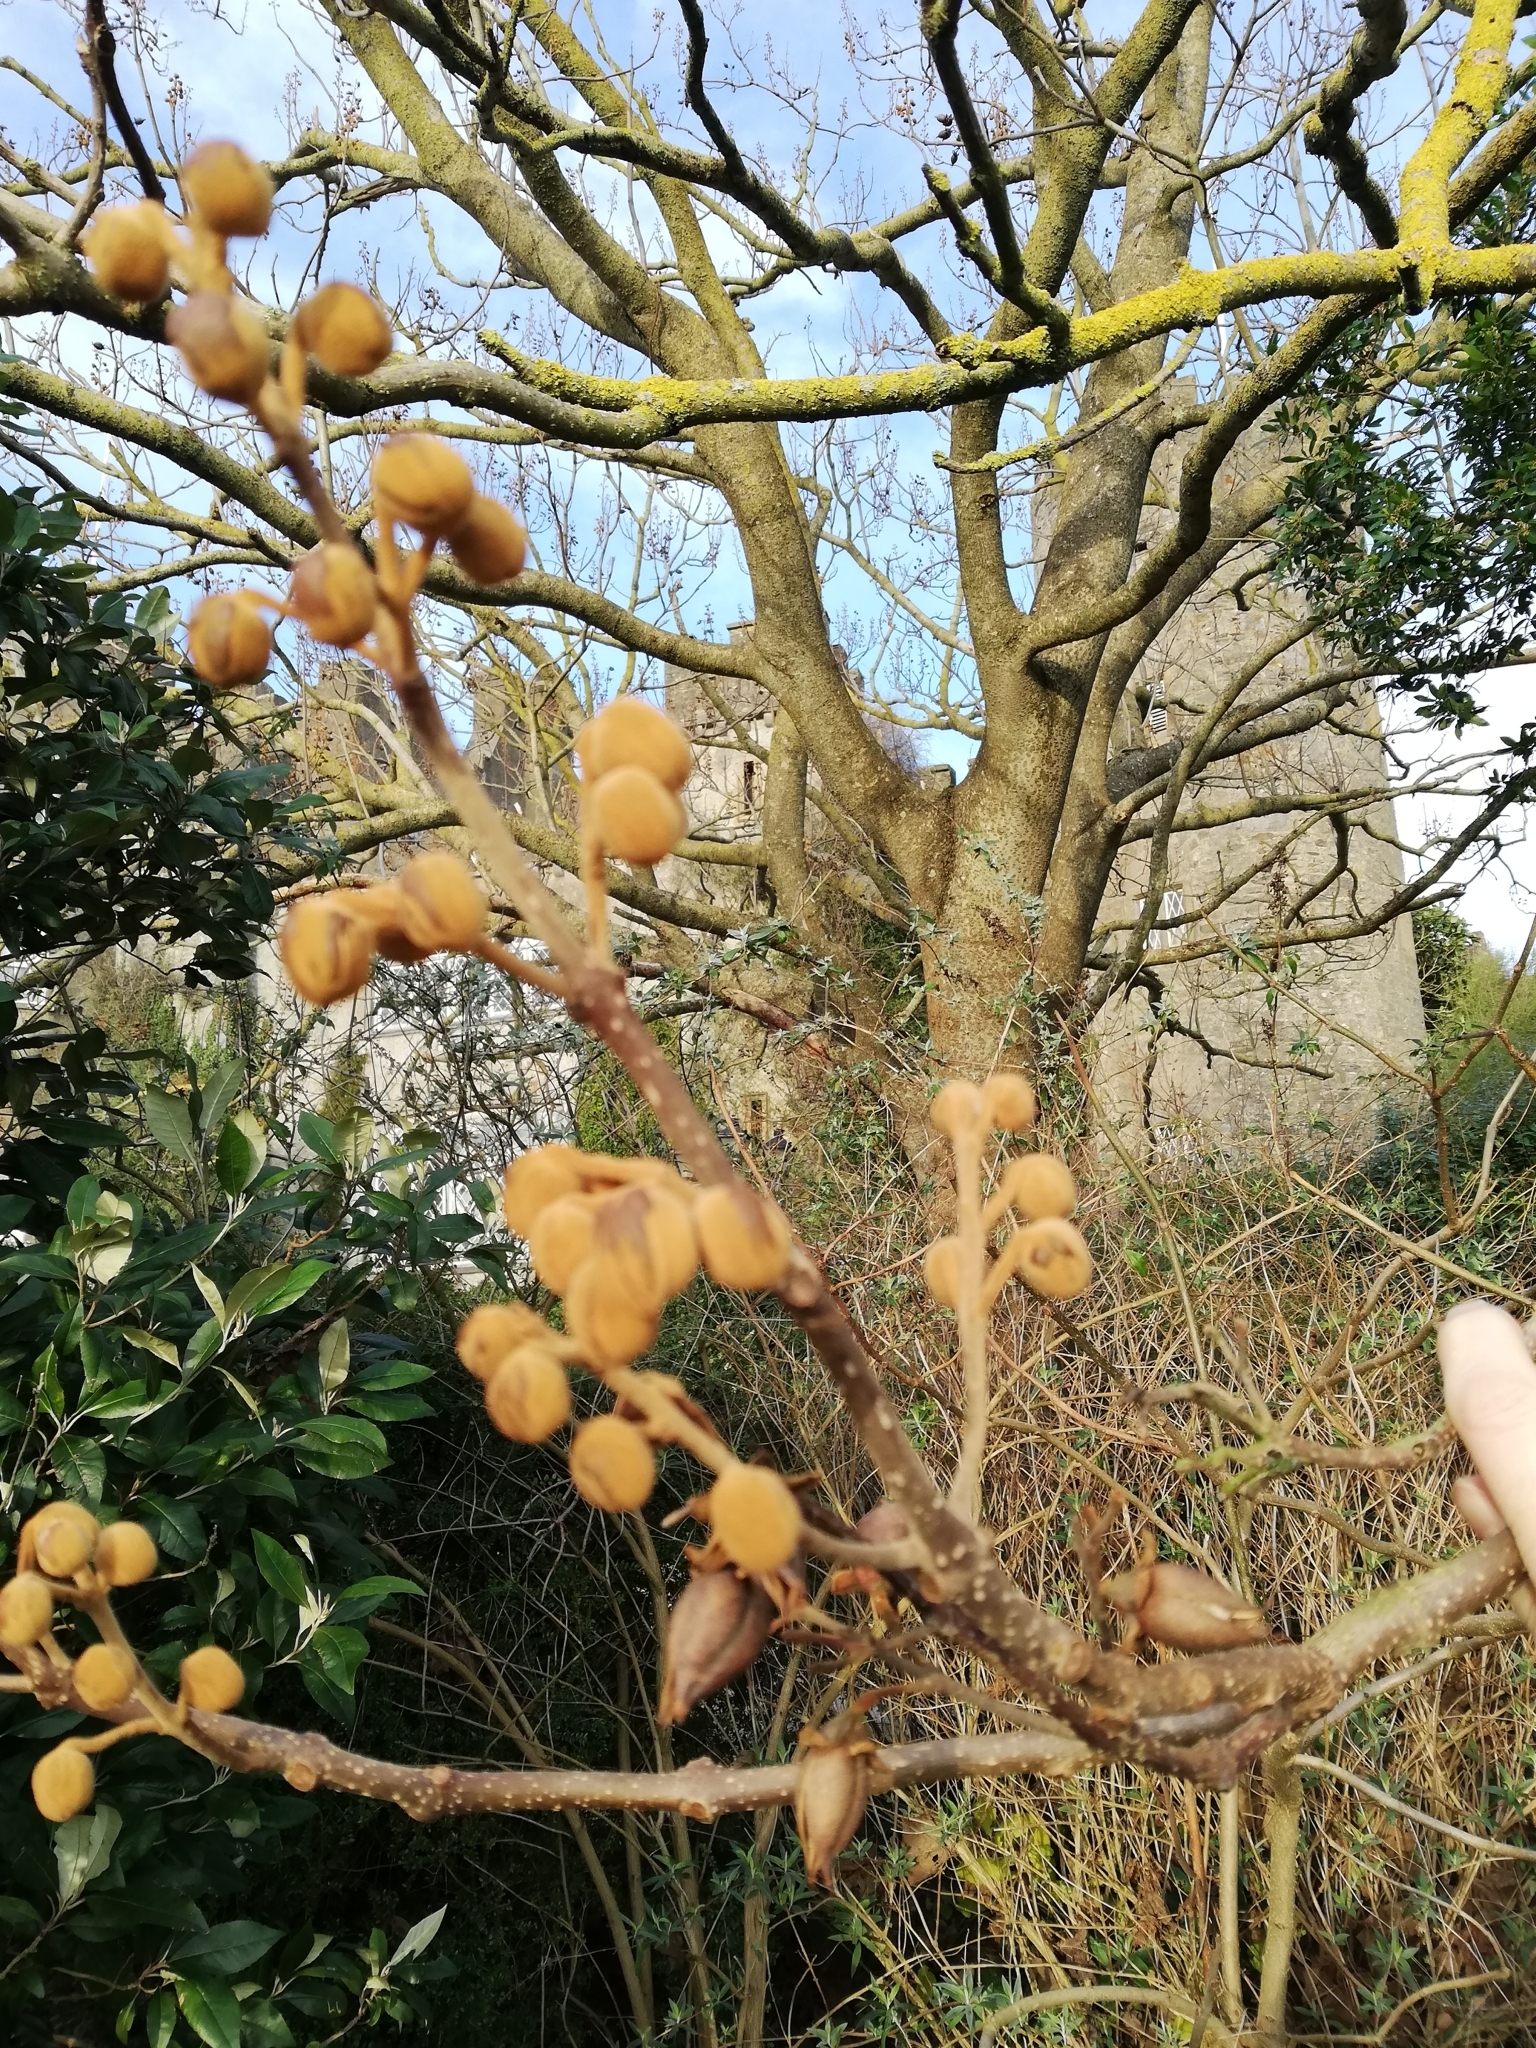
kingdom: Plantae
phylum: Tracheophyta
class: Magnoliopsida
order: Lamiales
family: Paulowniaceae
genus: Paulownia
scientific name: Paulownia tomentosa
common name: Foxglove-tree
